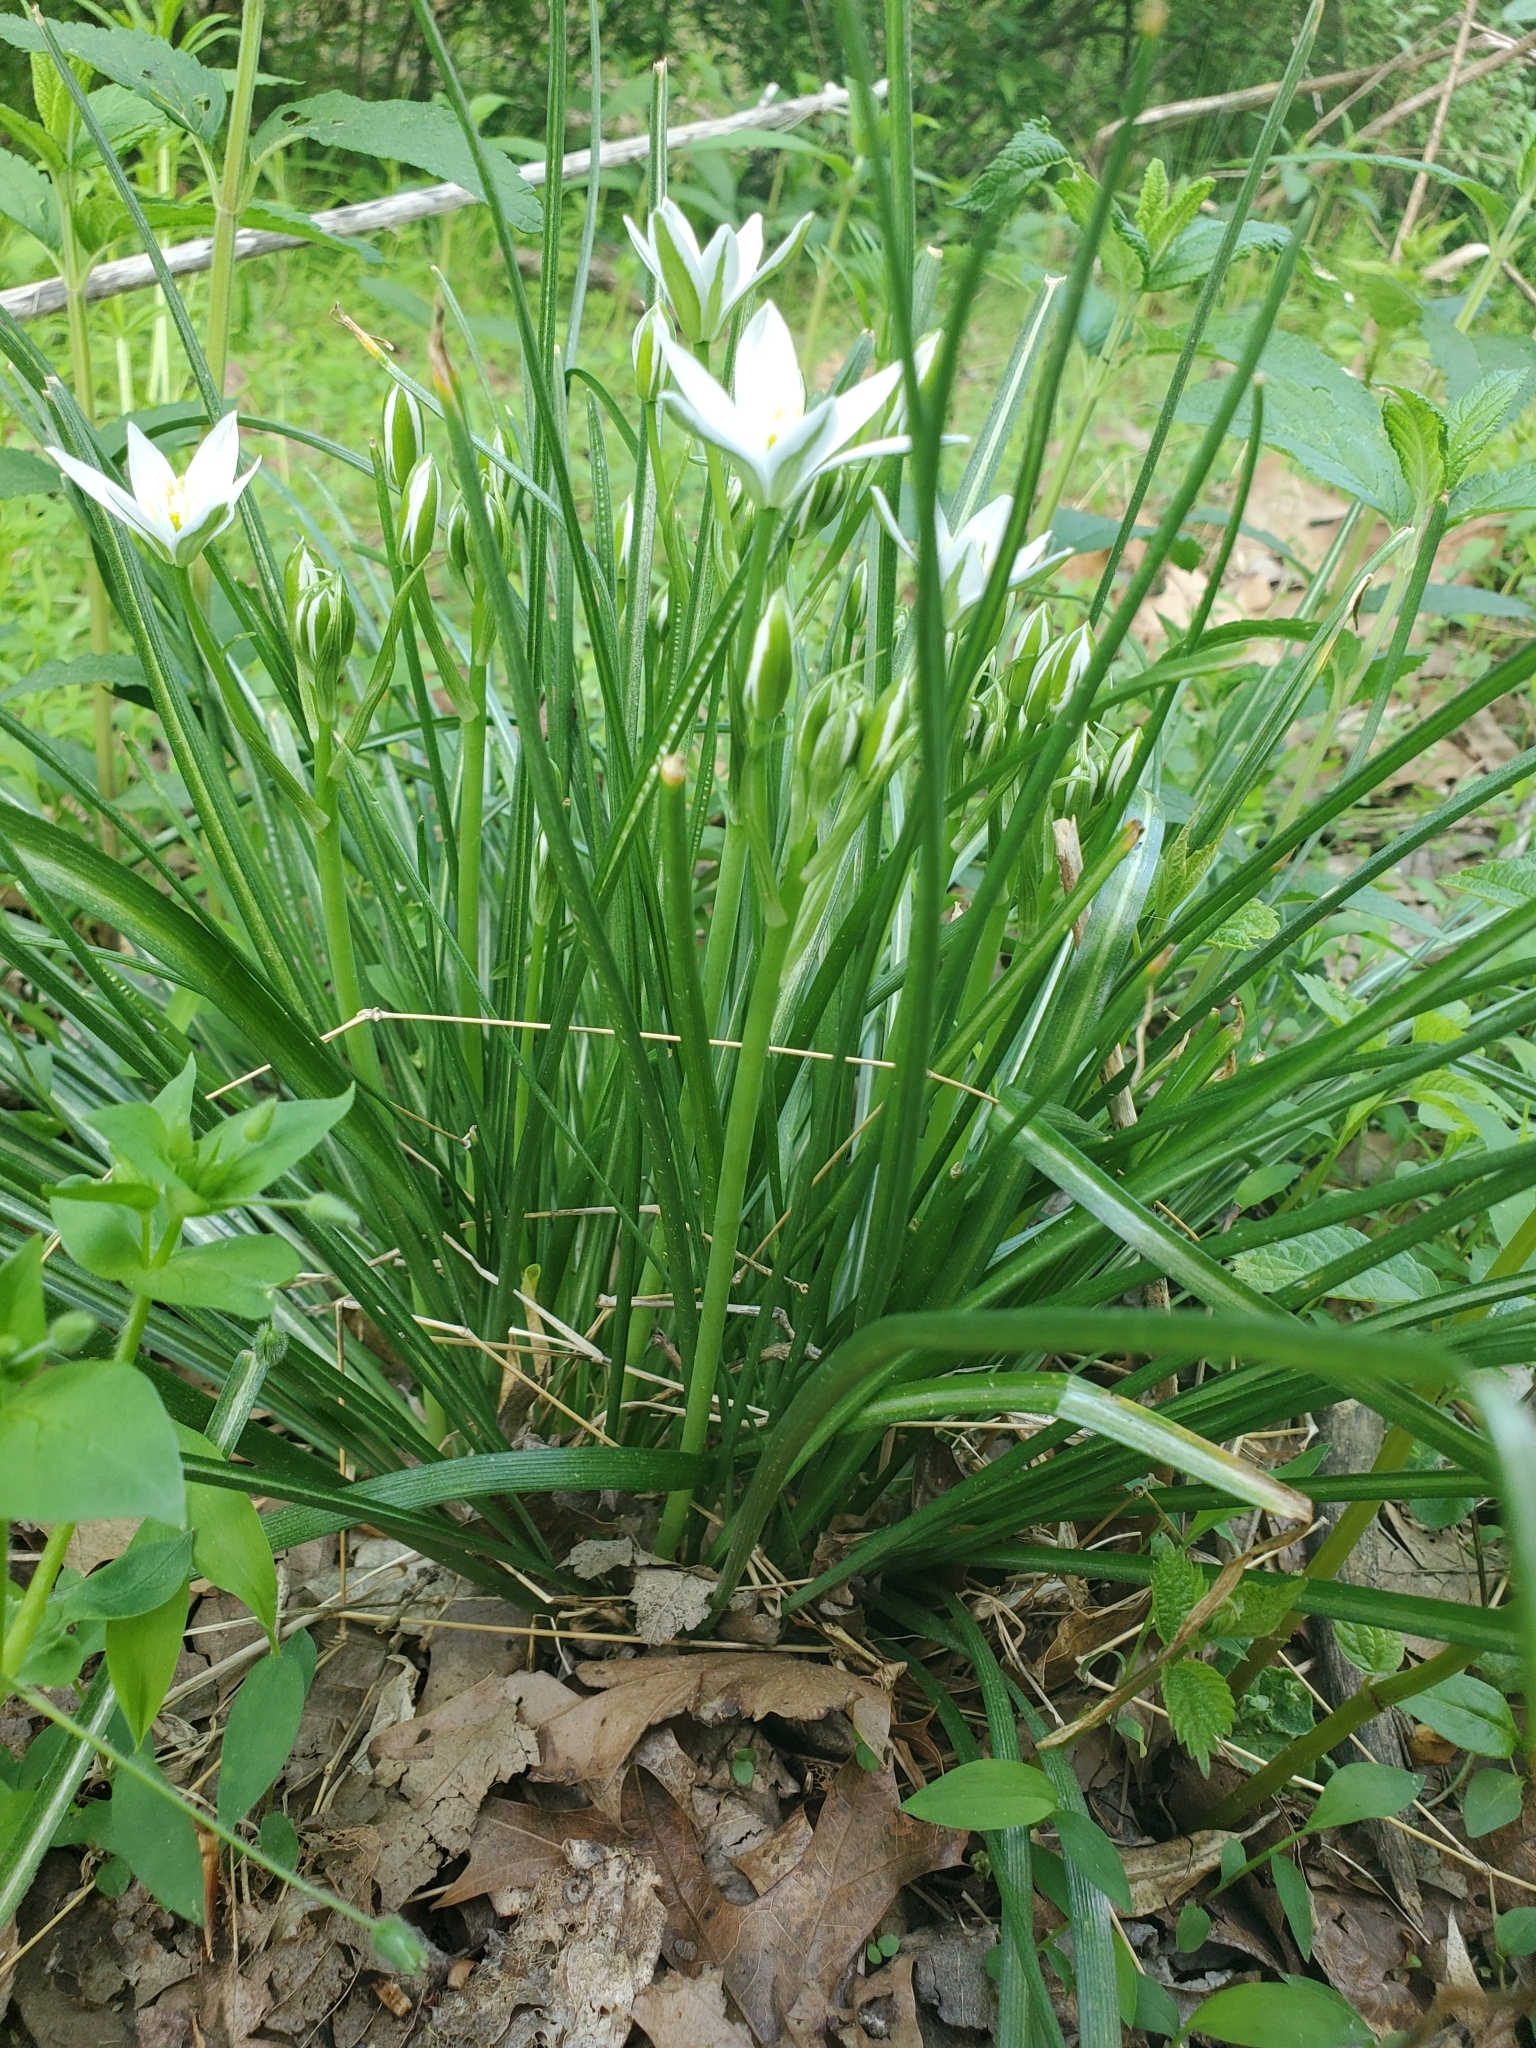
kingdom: Plantae
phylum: Tracheophyta
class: Liliopsida
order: Asparagales
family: Asparagaceae
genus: Ornithogalum
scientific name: Ornithogalum umbellatum
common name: Garden star-of-bethlehem
